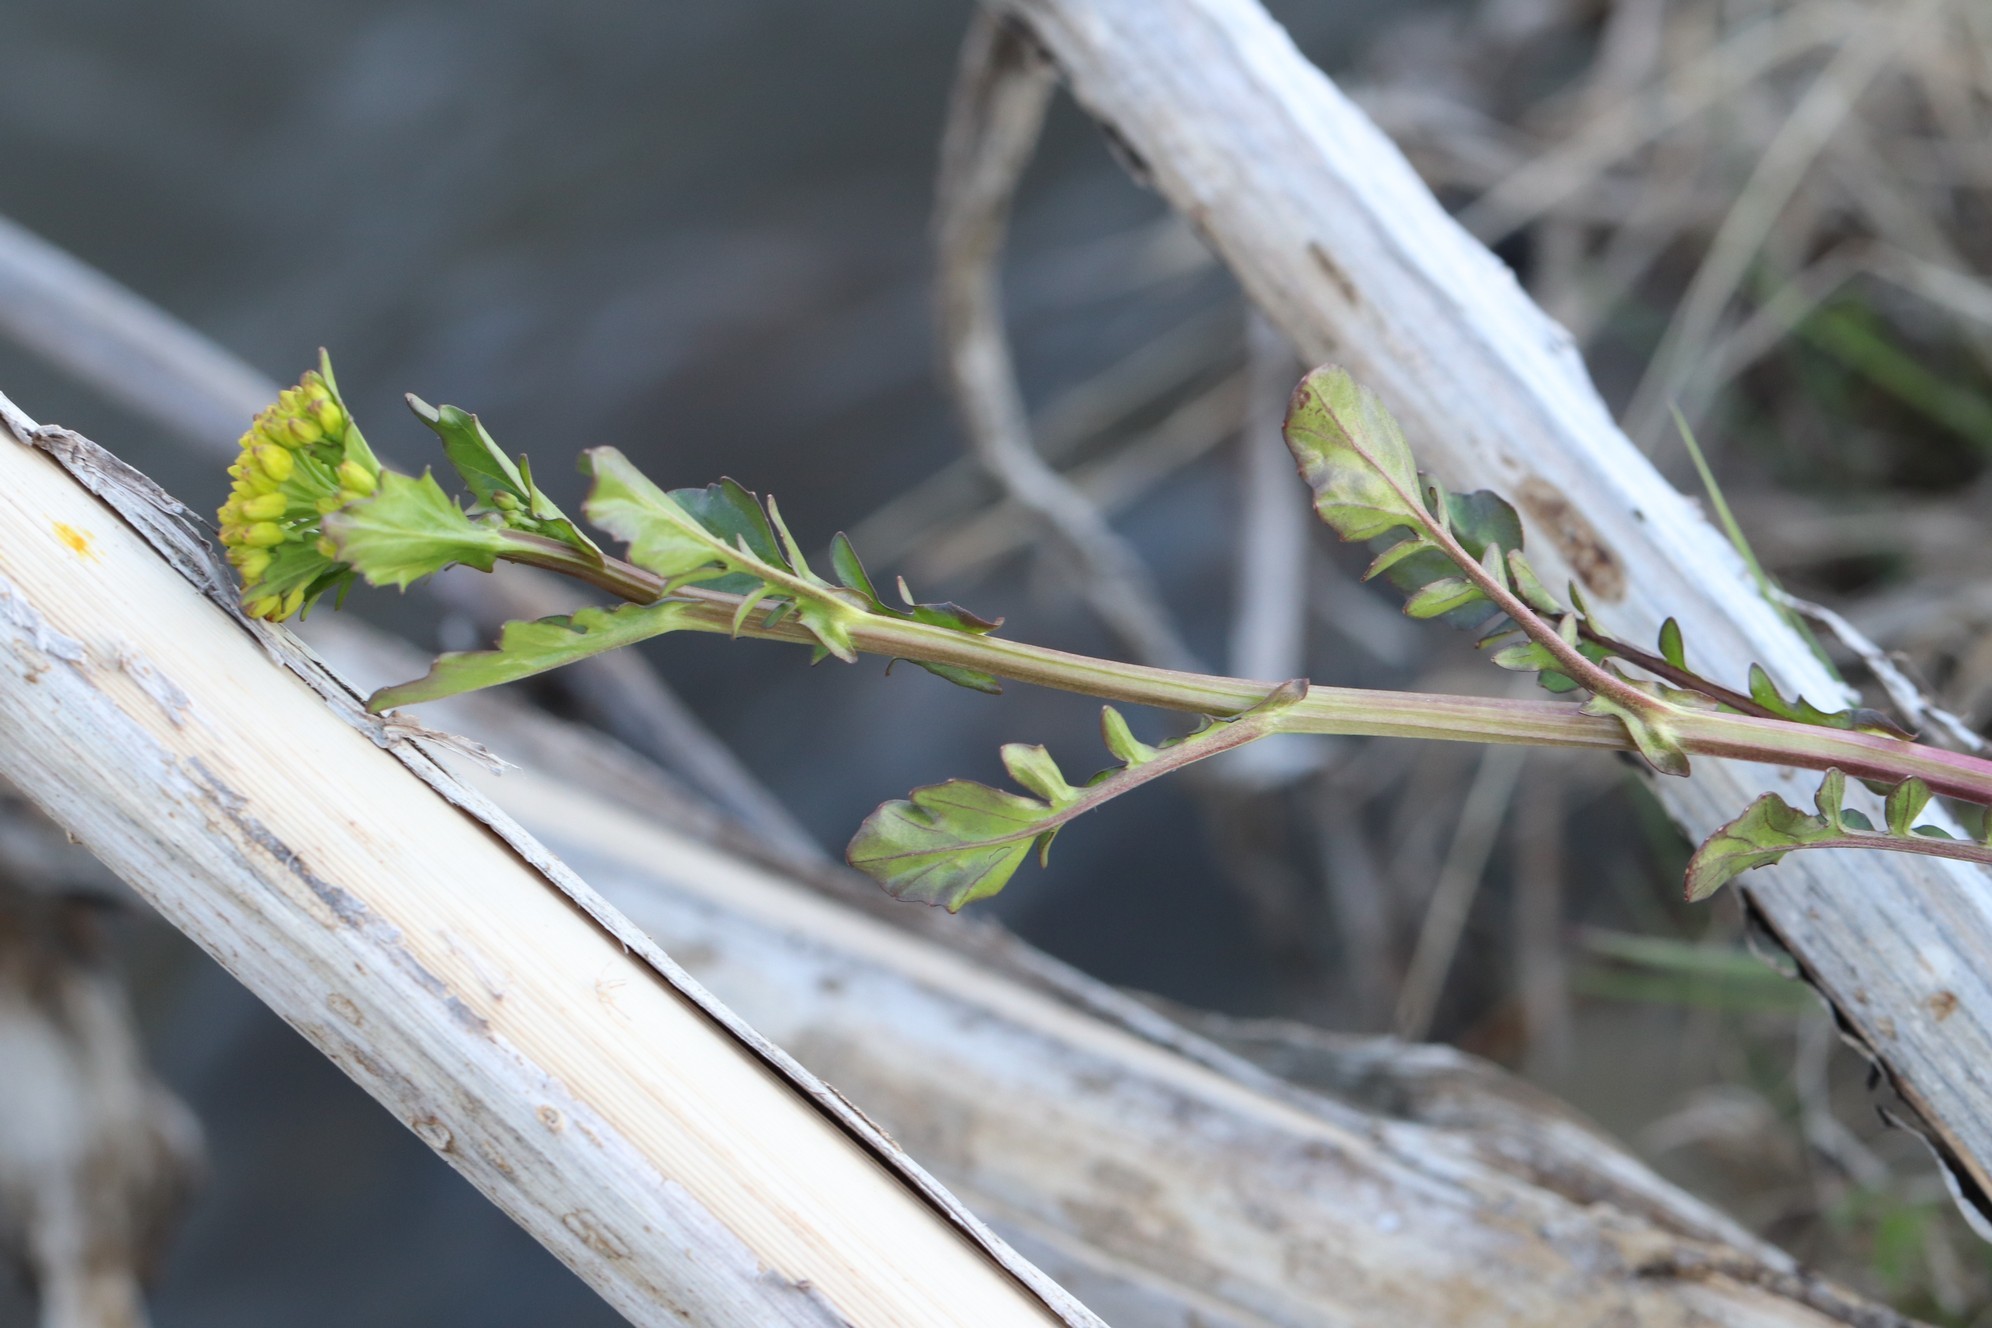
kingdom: Plantae
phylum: Tracheophyta
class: Magnoliopsida
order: Brassicales
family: Brassicaceae
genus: Barbarea
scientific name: Barbarea vulgaris
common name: Cressy-greens
